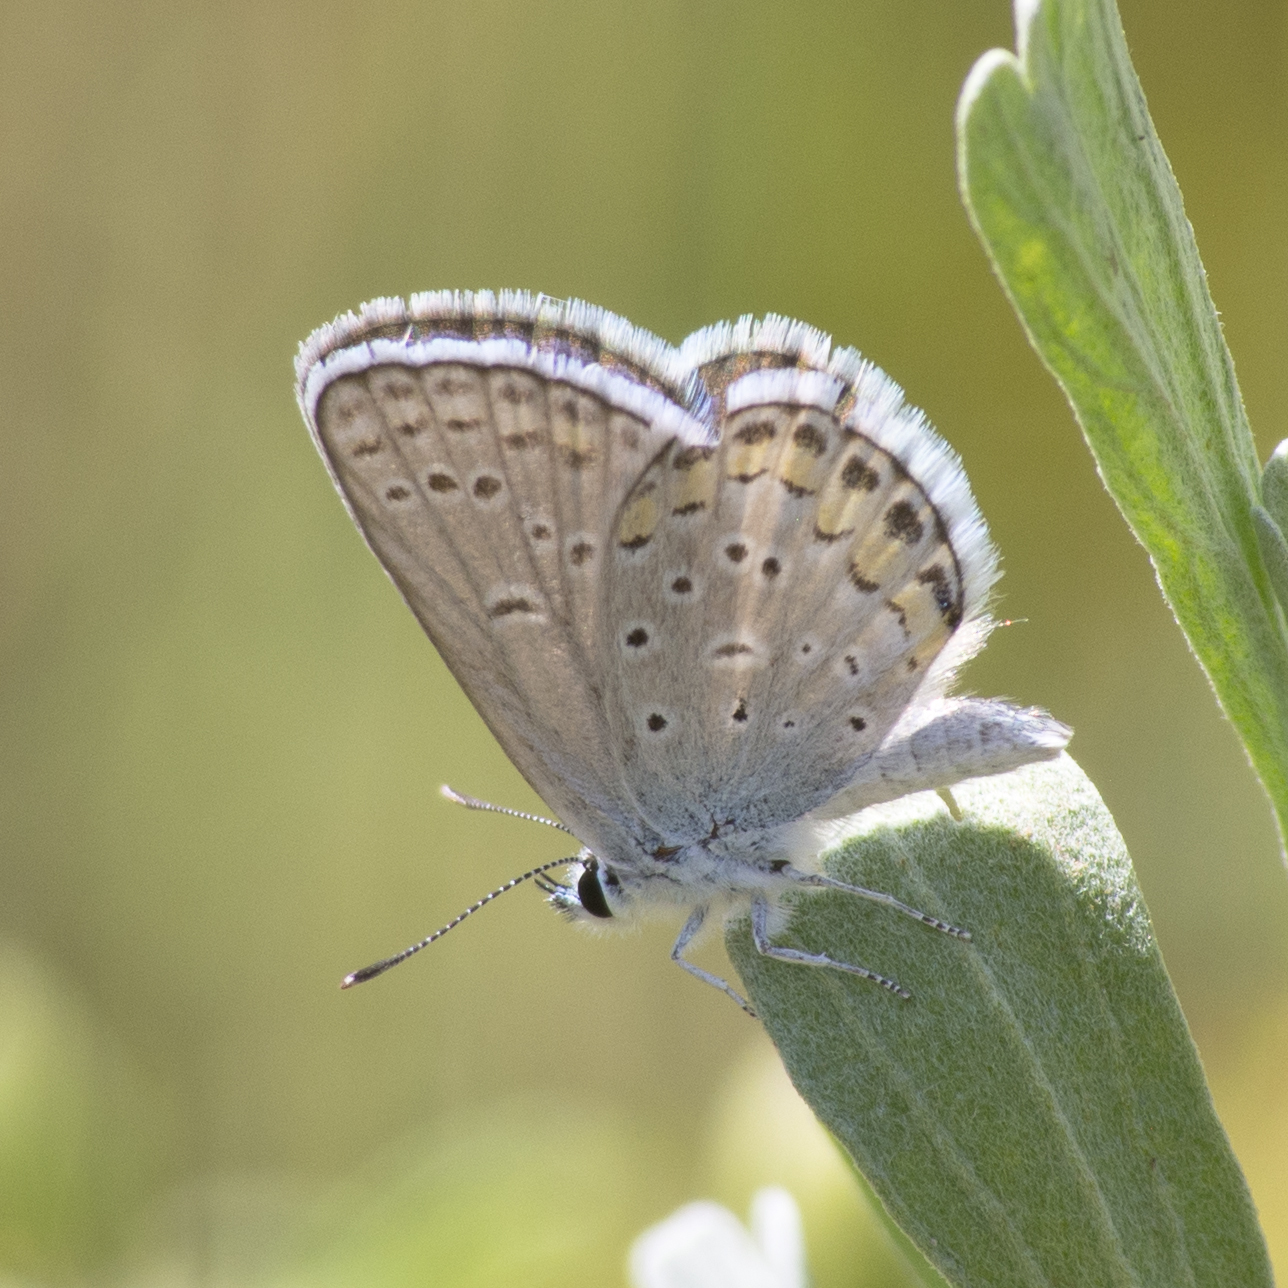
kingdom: Animalia
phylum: Arthropoda
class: Insecta
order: Lepidoptera
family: Lycaenidae
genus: Lycaeides
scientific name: Lycaeides melissa
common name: Melissa blue
